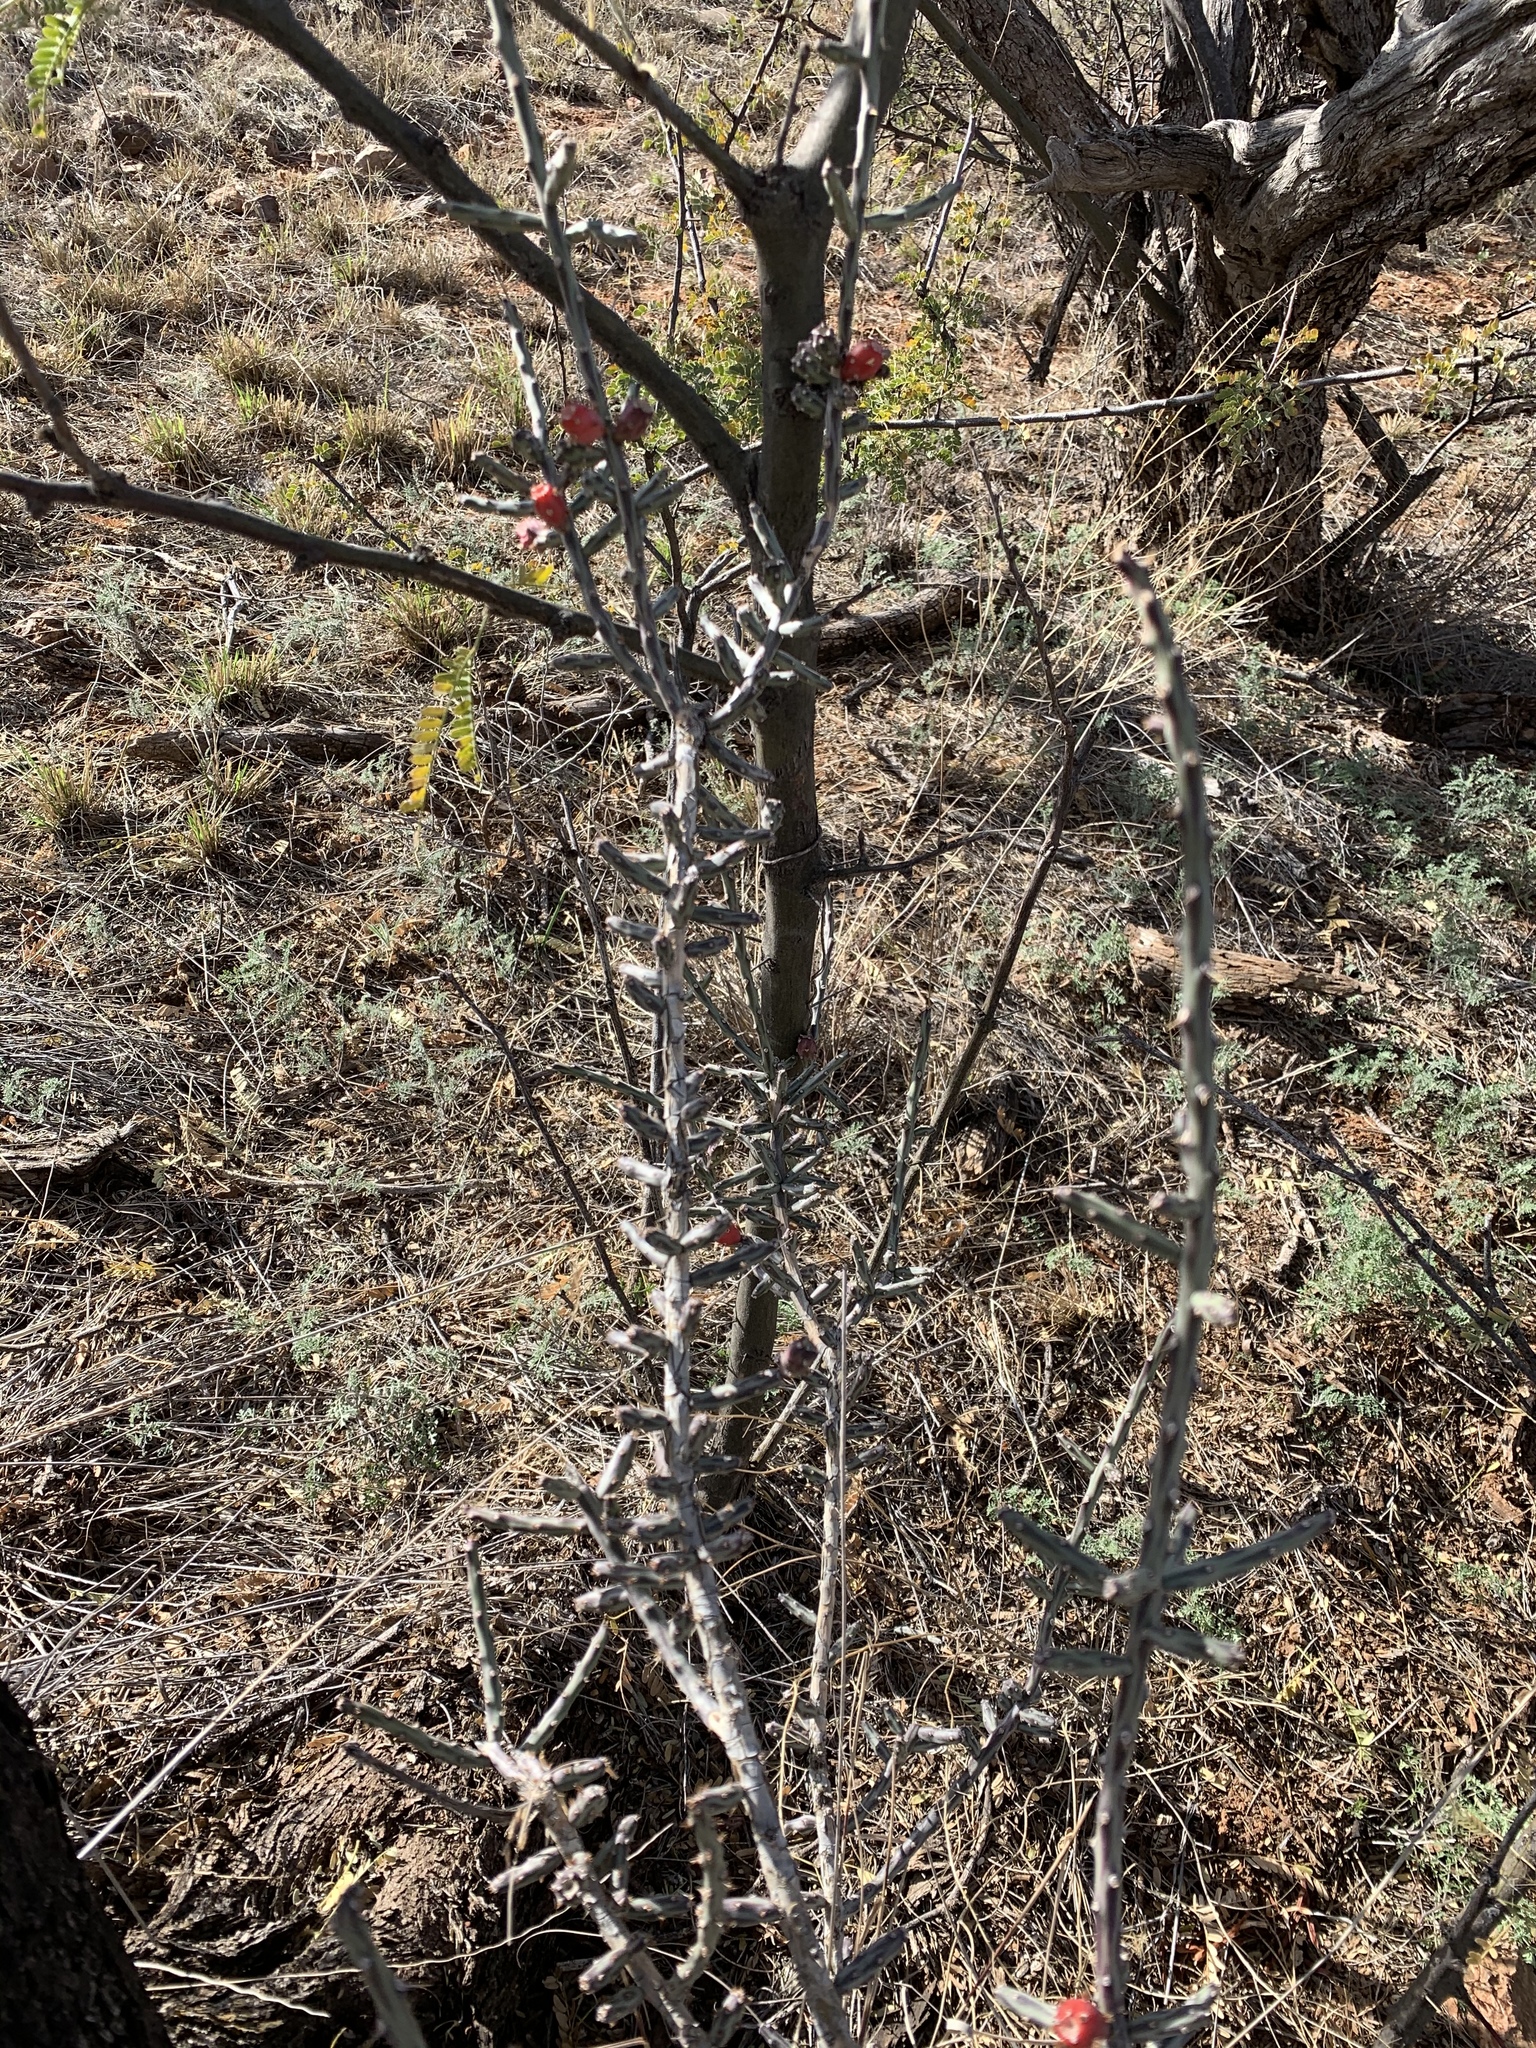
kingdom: Plantae
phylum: Tracheophyta
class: Magnoliopsida
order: Caryophyllales
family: Cactaceae
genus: Cylindropuntia
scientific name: Cylindropuntia leptocaulis
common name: Christmas cactus
